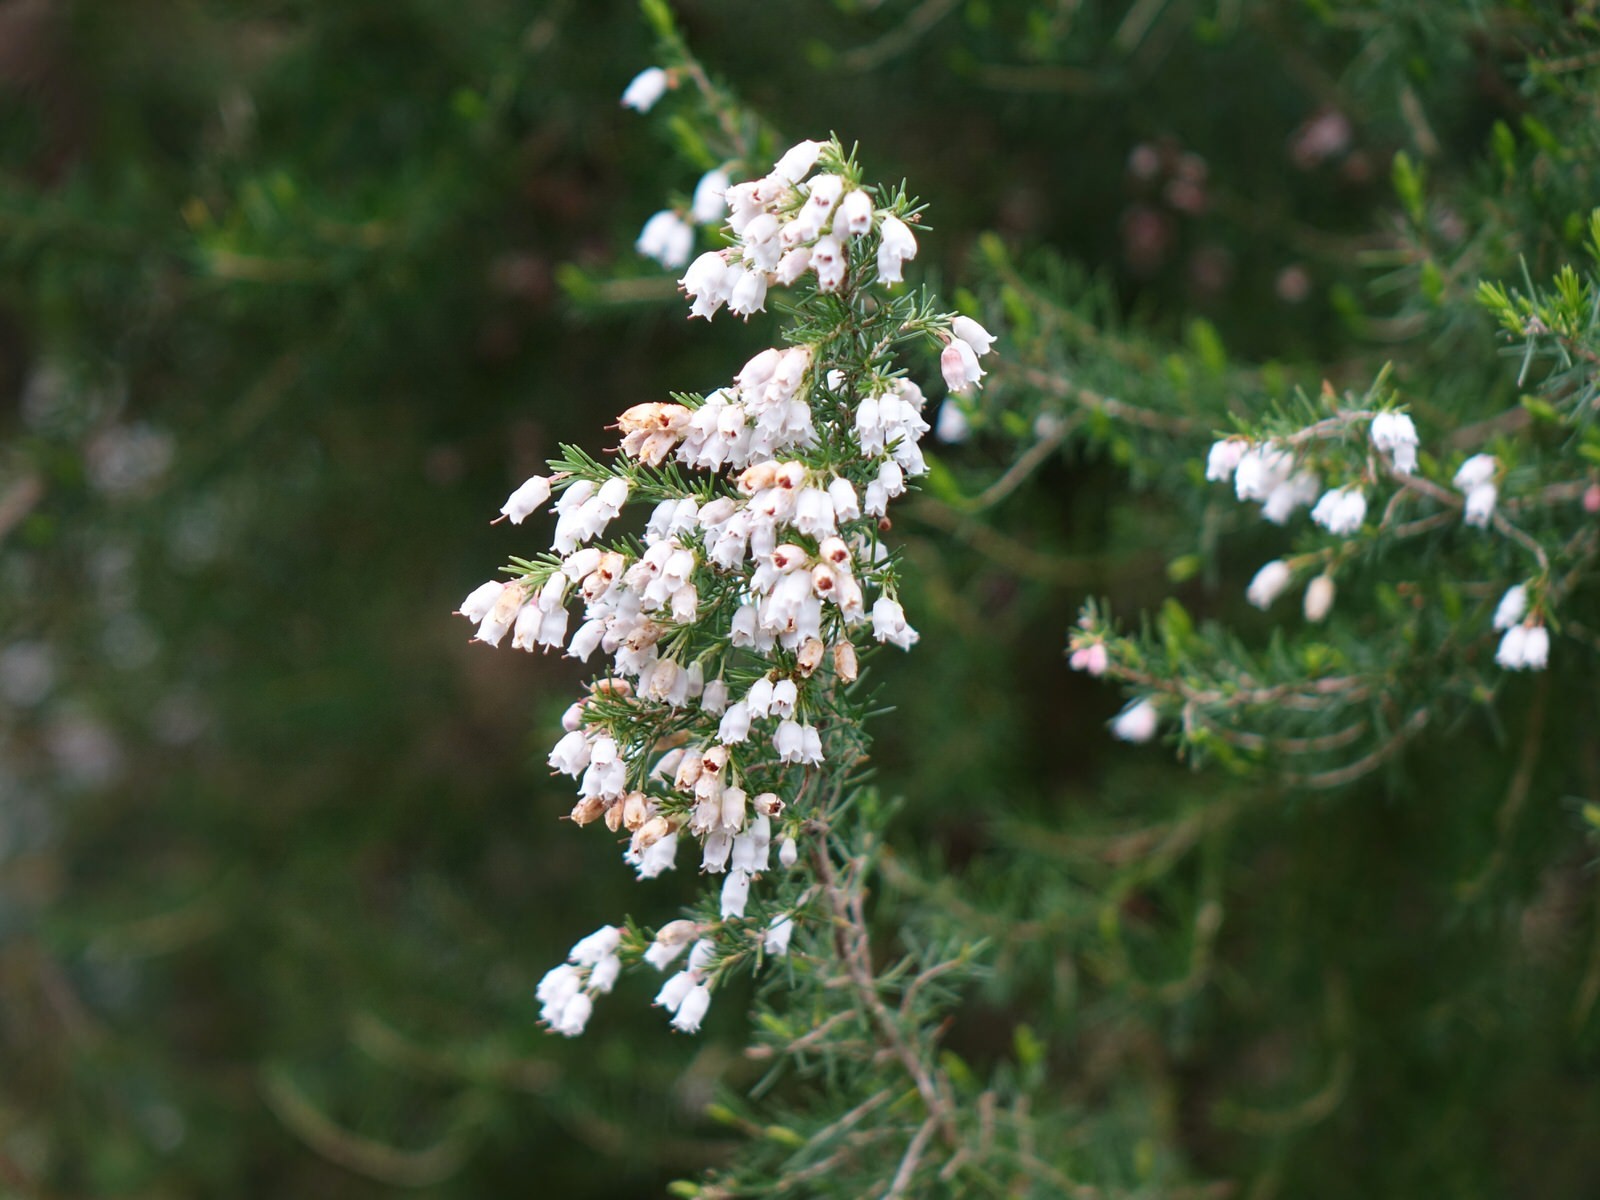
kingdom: Plantae
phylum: Tracheophyta
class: Magnoliopsida
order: Ericales
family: Ericaceae
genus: Erica
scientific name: Erica lusitanica
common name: Spanish heath
